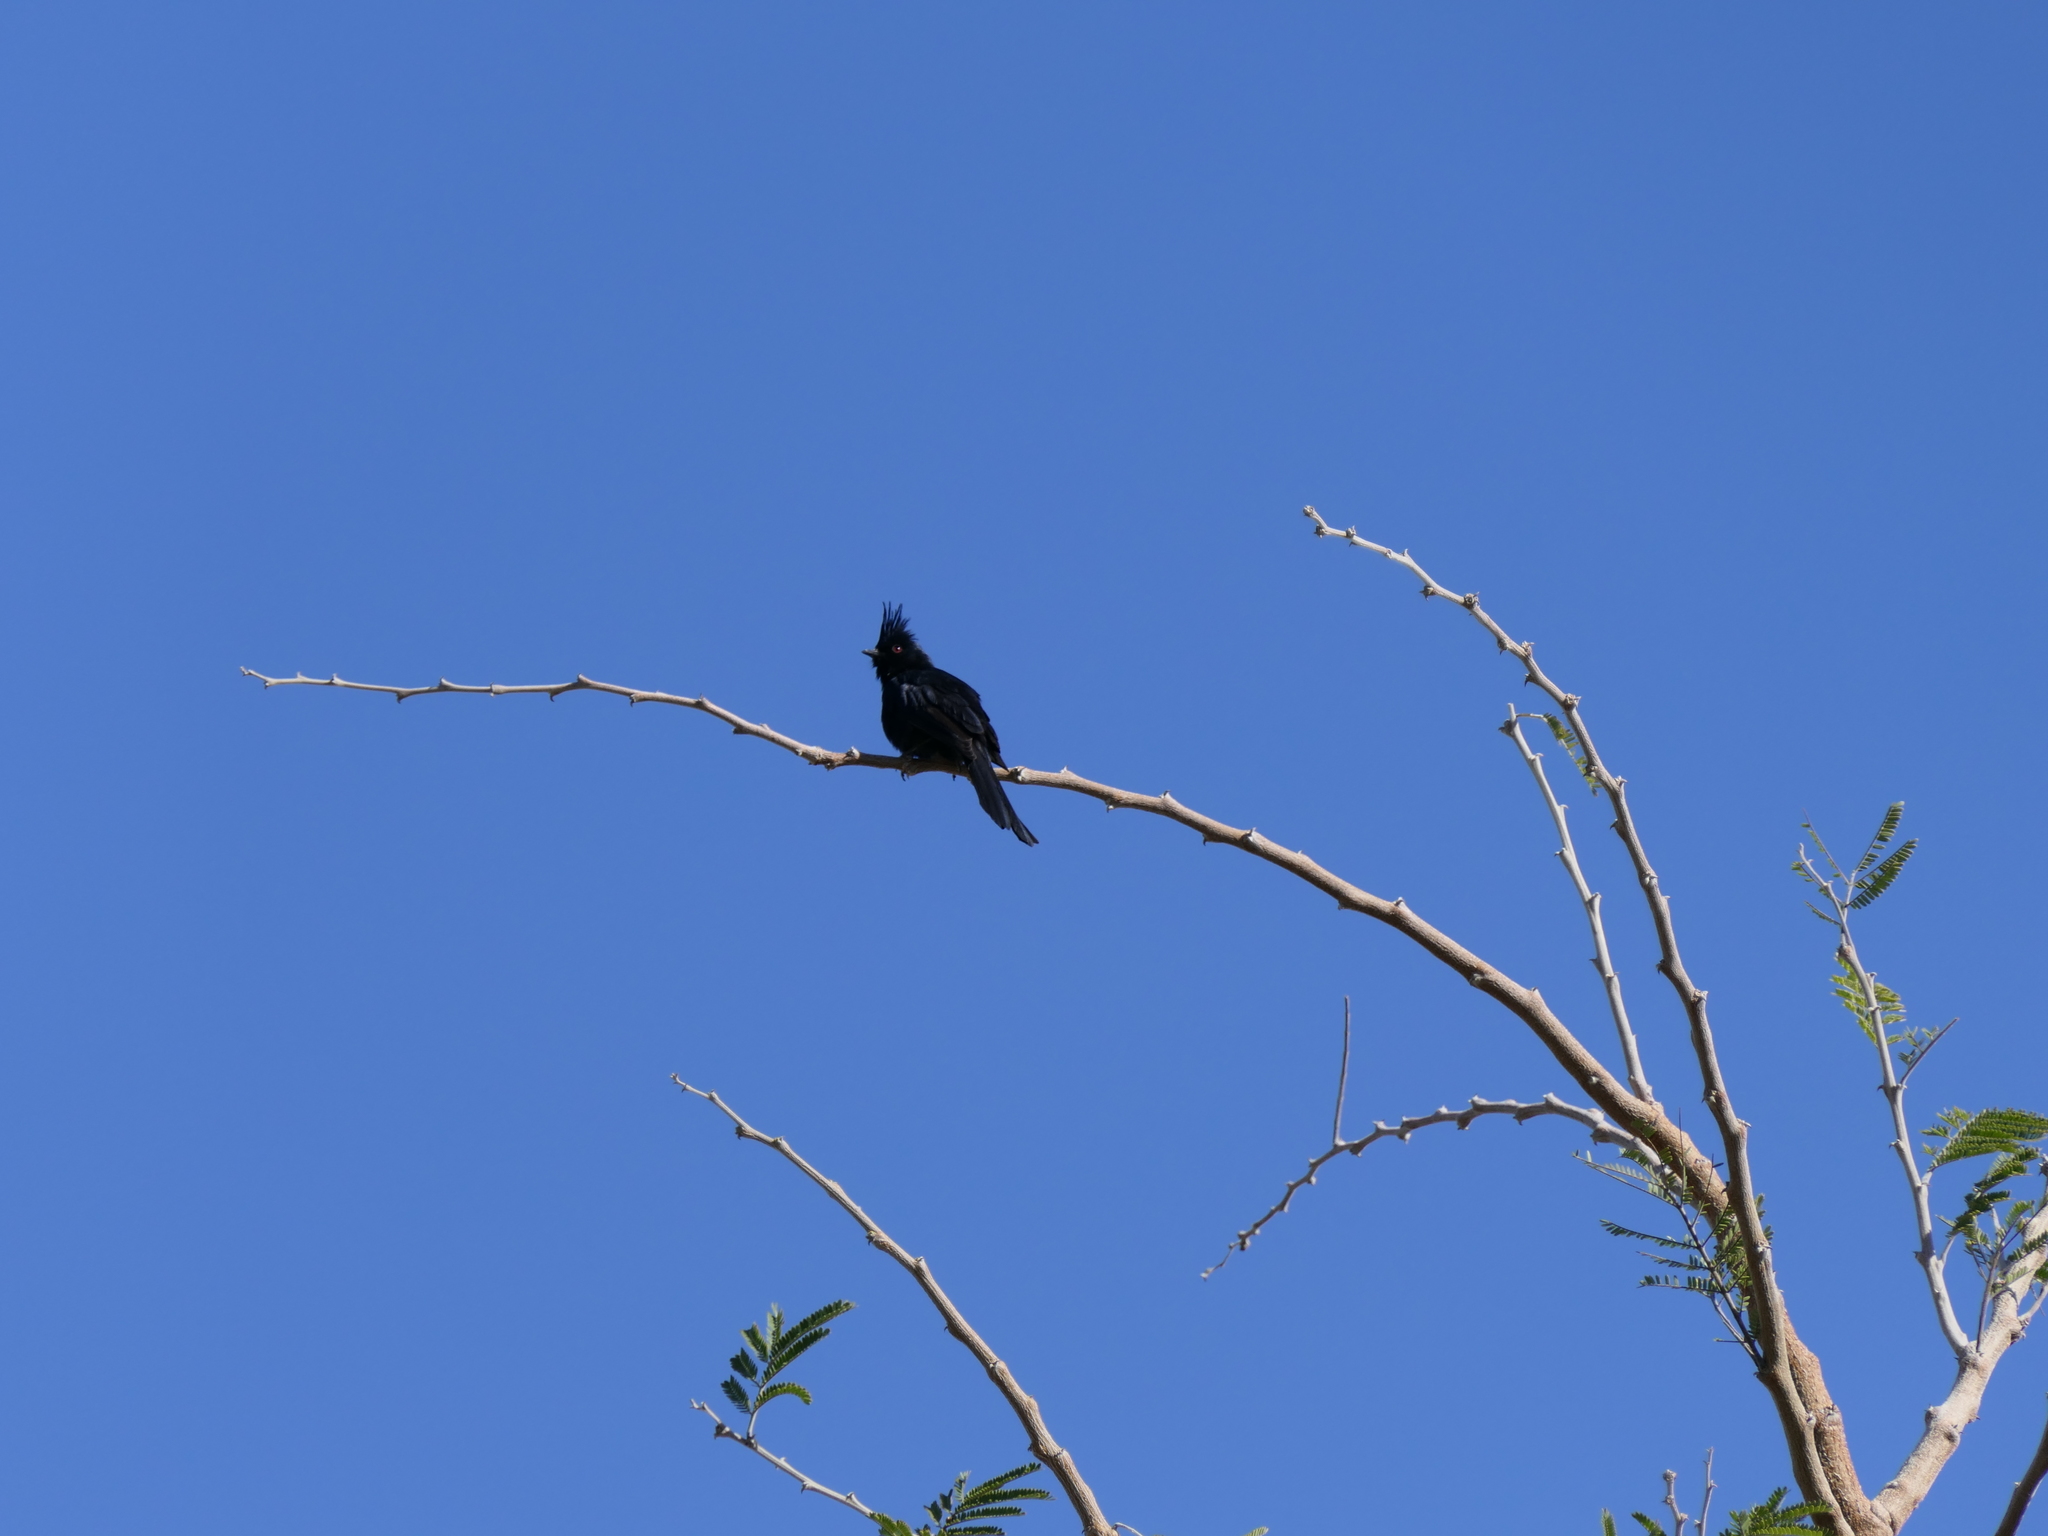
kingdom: Animalia
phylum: Chordata
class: Aves
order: Passeriformes
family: Ptilogonatidae
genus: Phainopepla
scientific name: Phainopepla nitens
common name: Phainopepla
